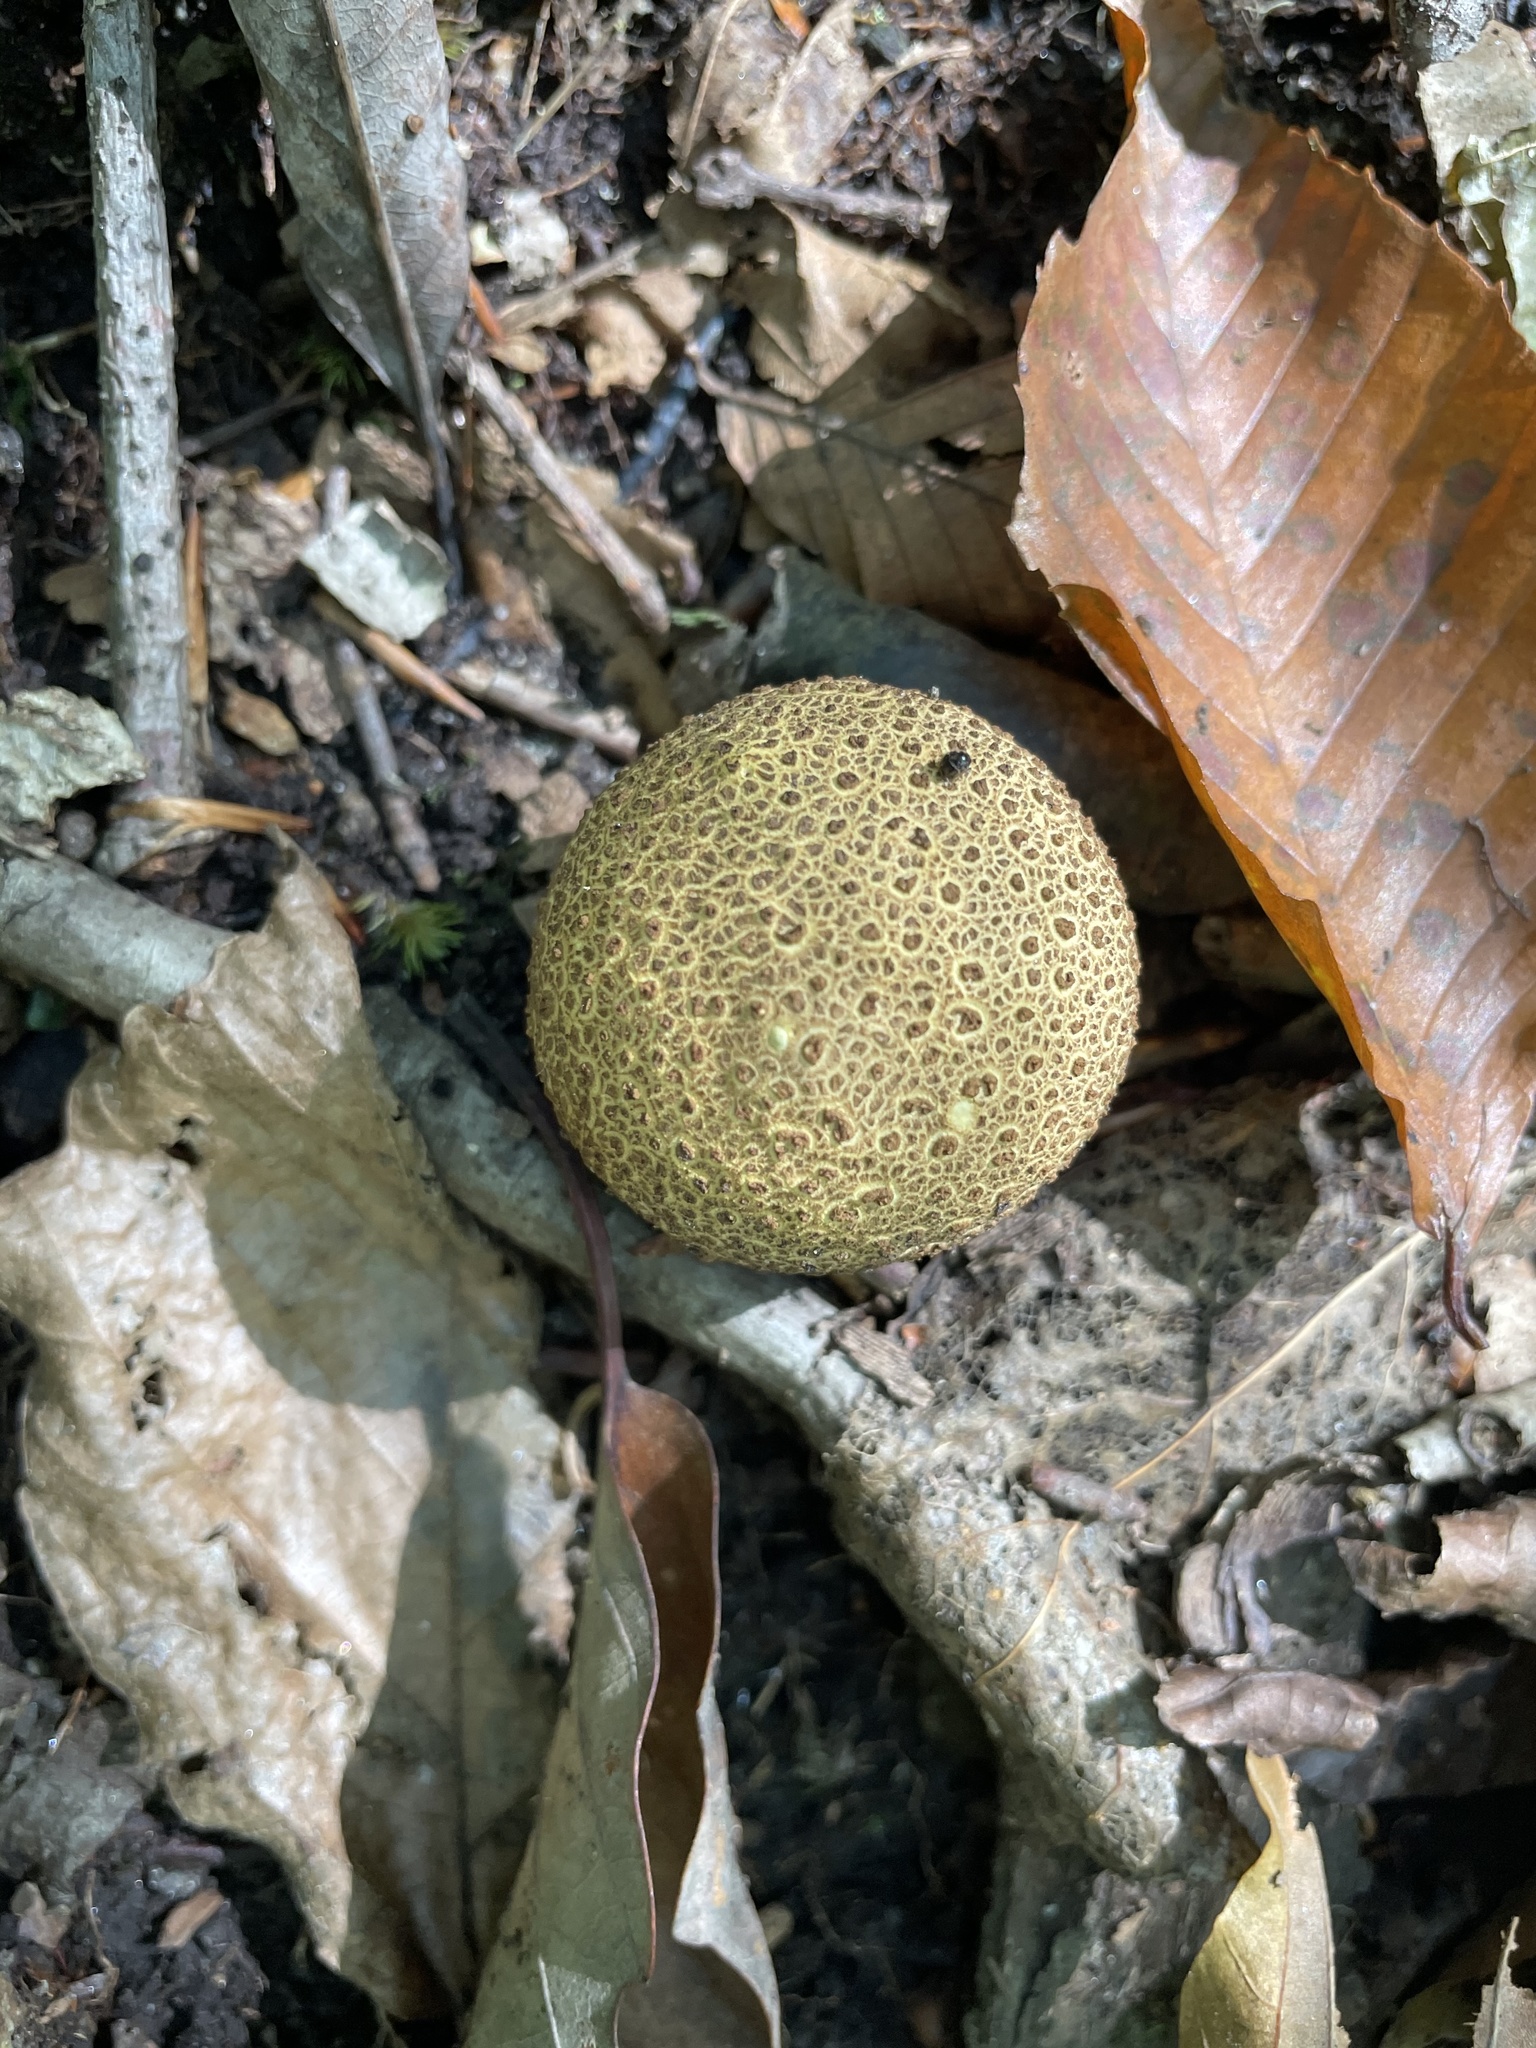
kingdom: Fungi
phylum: Basidiomycota
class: Agaricomycetes
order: Boletales
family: Sclerodermataceae
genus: Scleroderma
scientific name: Scleroderma citrinum
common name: Common earthball
